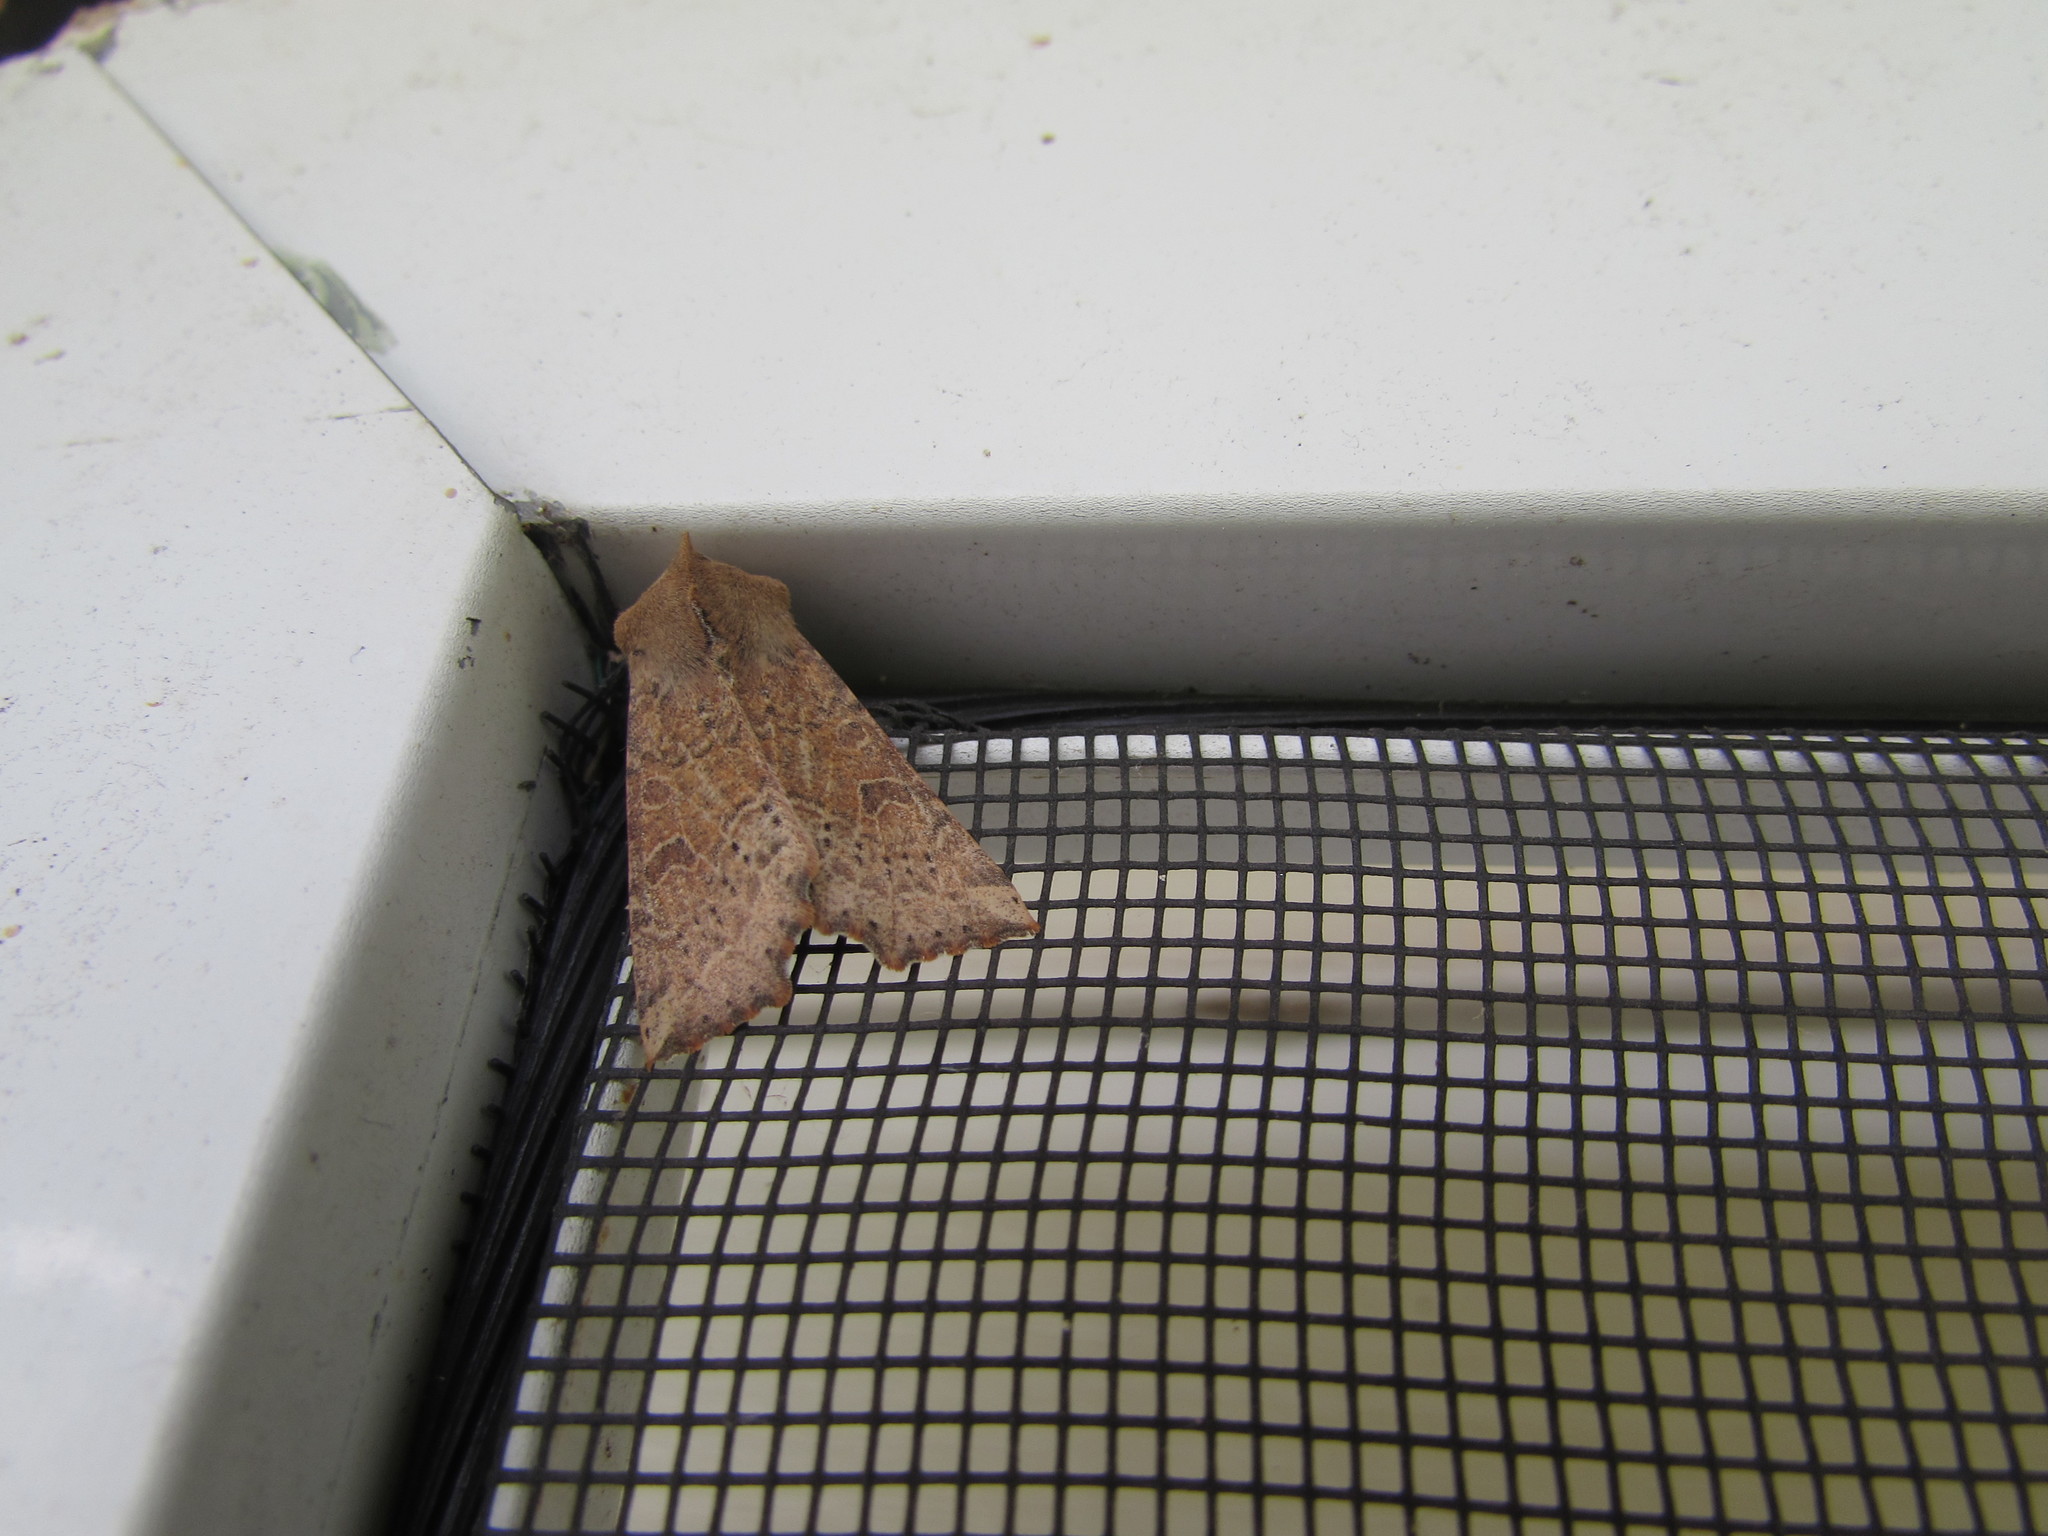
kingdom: Animalia
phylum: Arthropoda
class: Insecta
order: Lepidoptera
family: Noctuidae
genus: Perigonica
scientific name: Perigonica tertia
